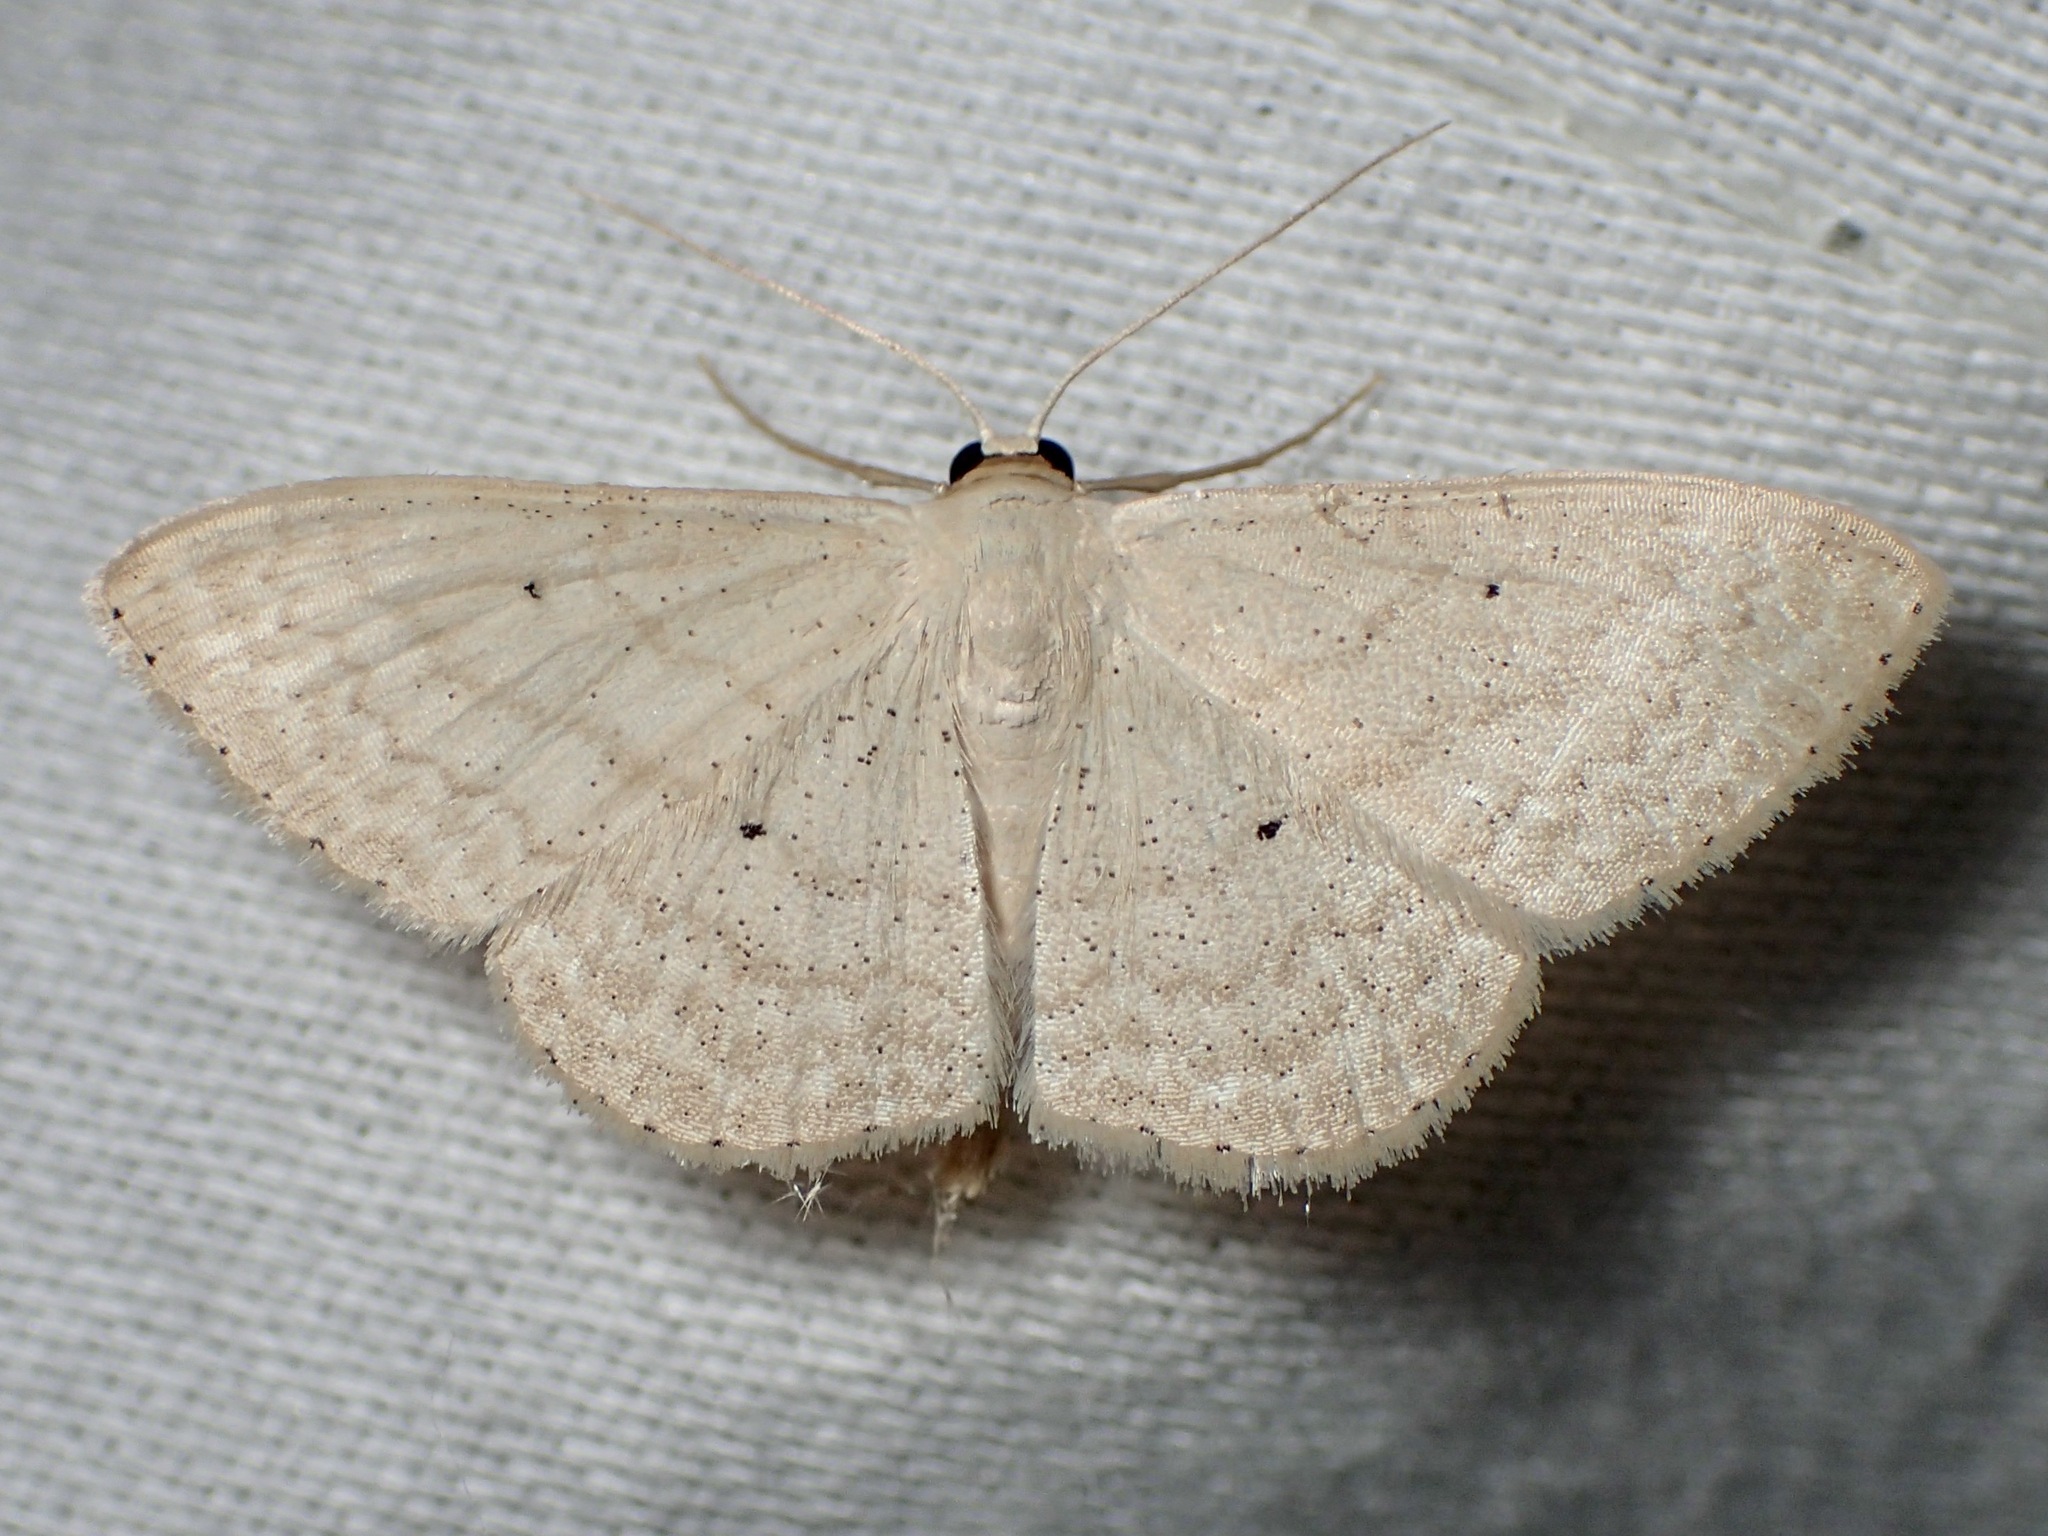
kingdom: Animalia
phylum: Arthropoda
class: Insecta
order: Lepidoptera
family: Geometridae
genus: Scopula
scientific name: Scopula optivata
